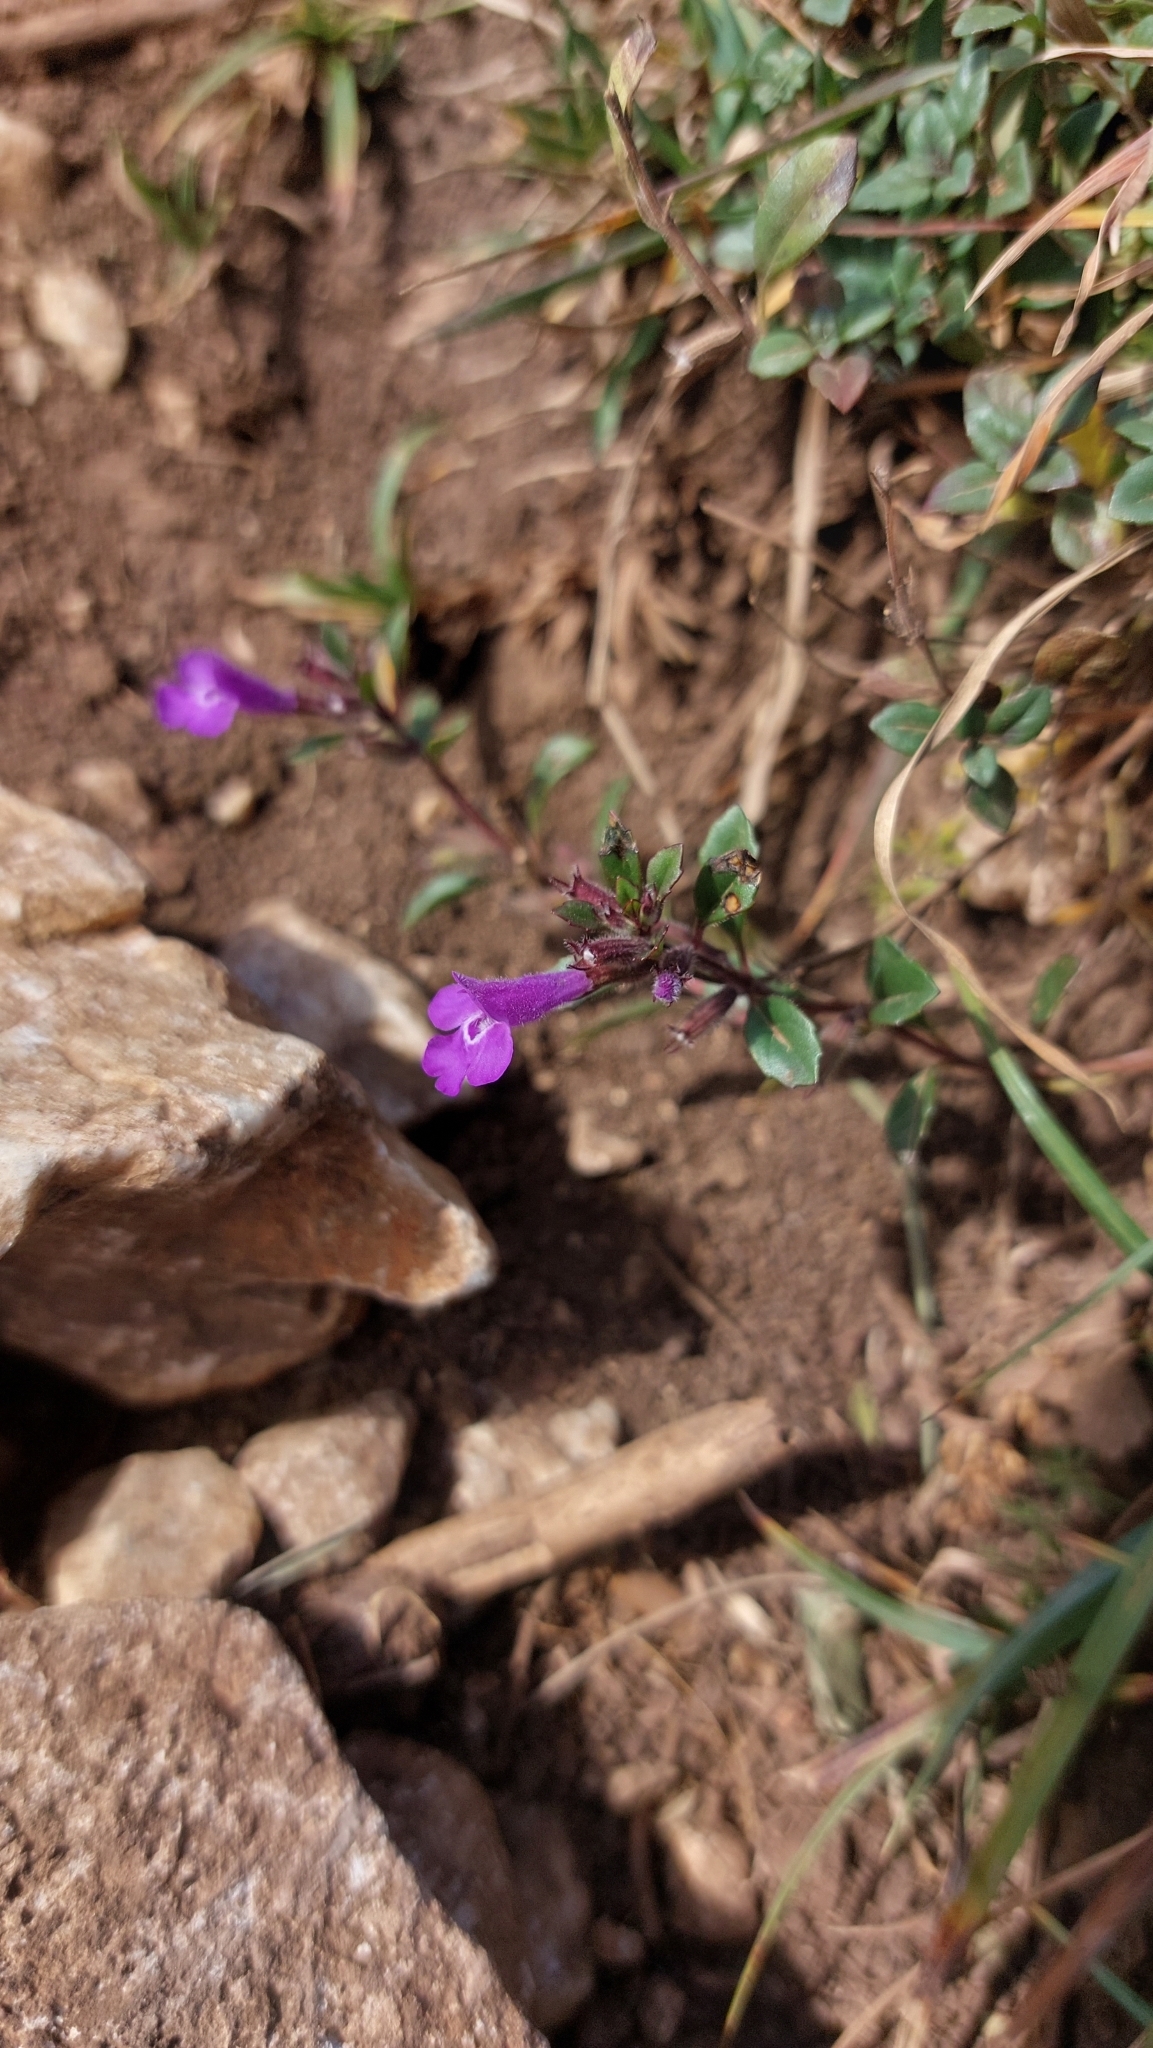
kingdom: Plantae
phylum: Tracheophyta
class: Magnoliopsida
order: Lamiales
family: Lamiaceae
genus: Clinopodium
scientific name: Clinopodium alpinum
